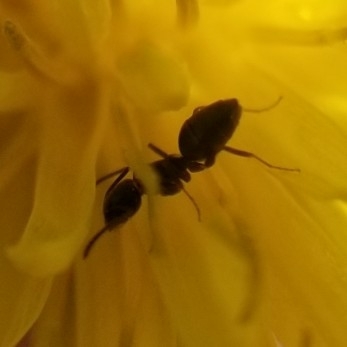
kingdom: Animalia
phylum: Arthropoda
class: Insecta
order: Hymenoptera
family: Formicidae
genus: Tapinoma
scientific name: Tapinoma sessile
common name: Odorous house ant
